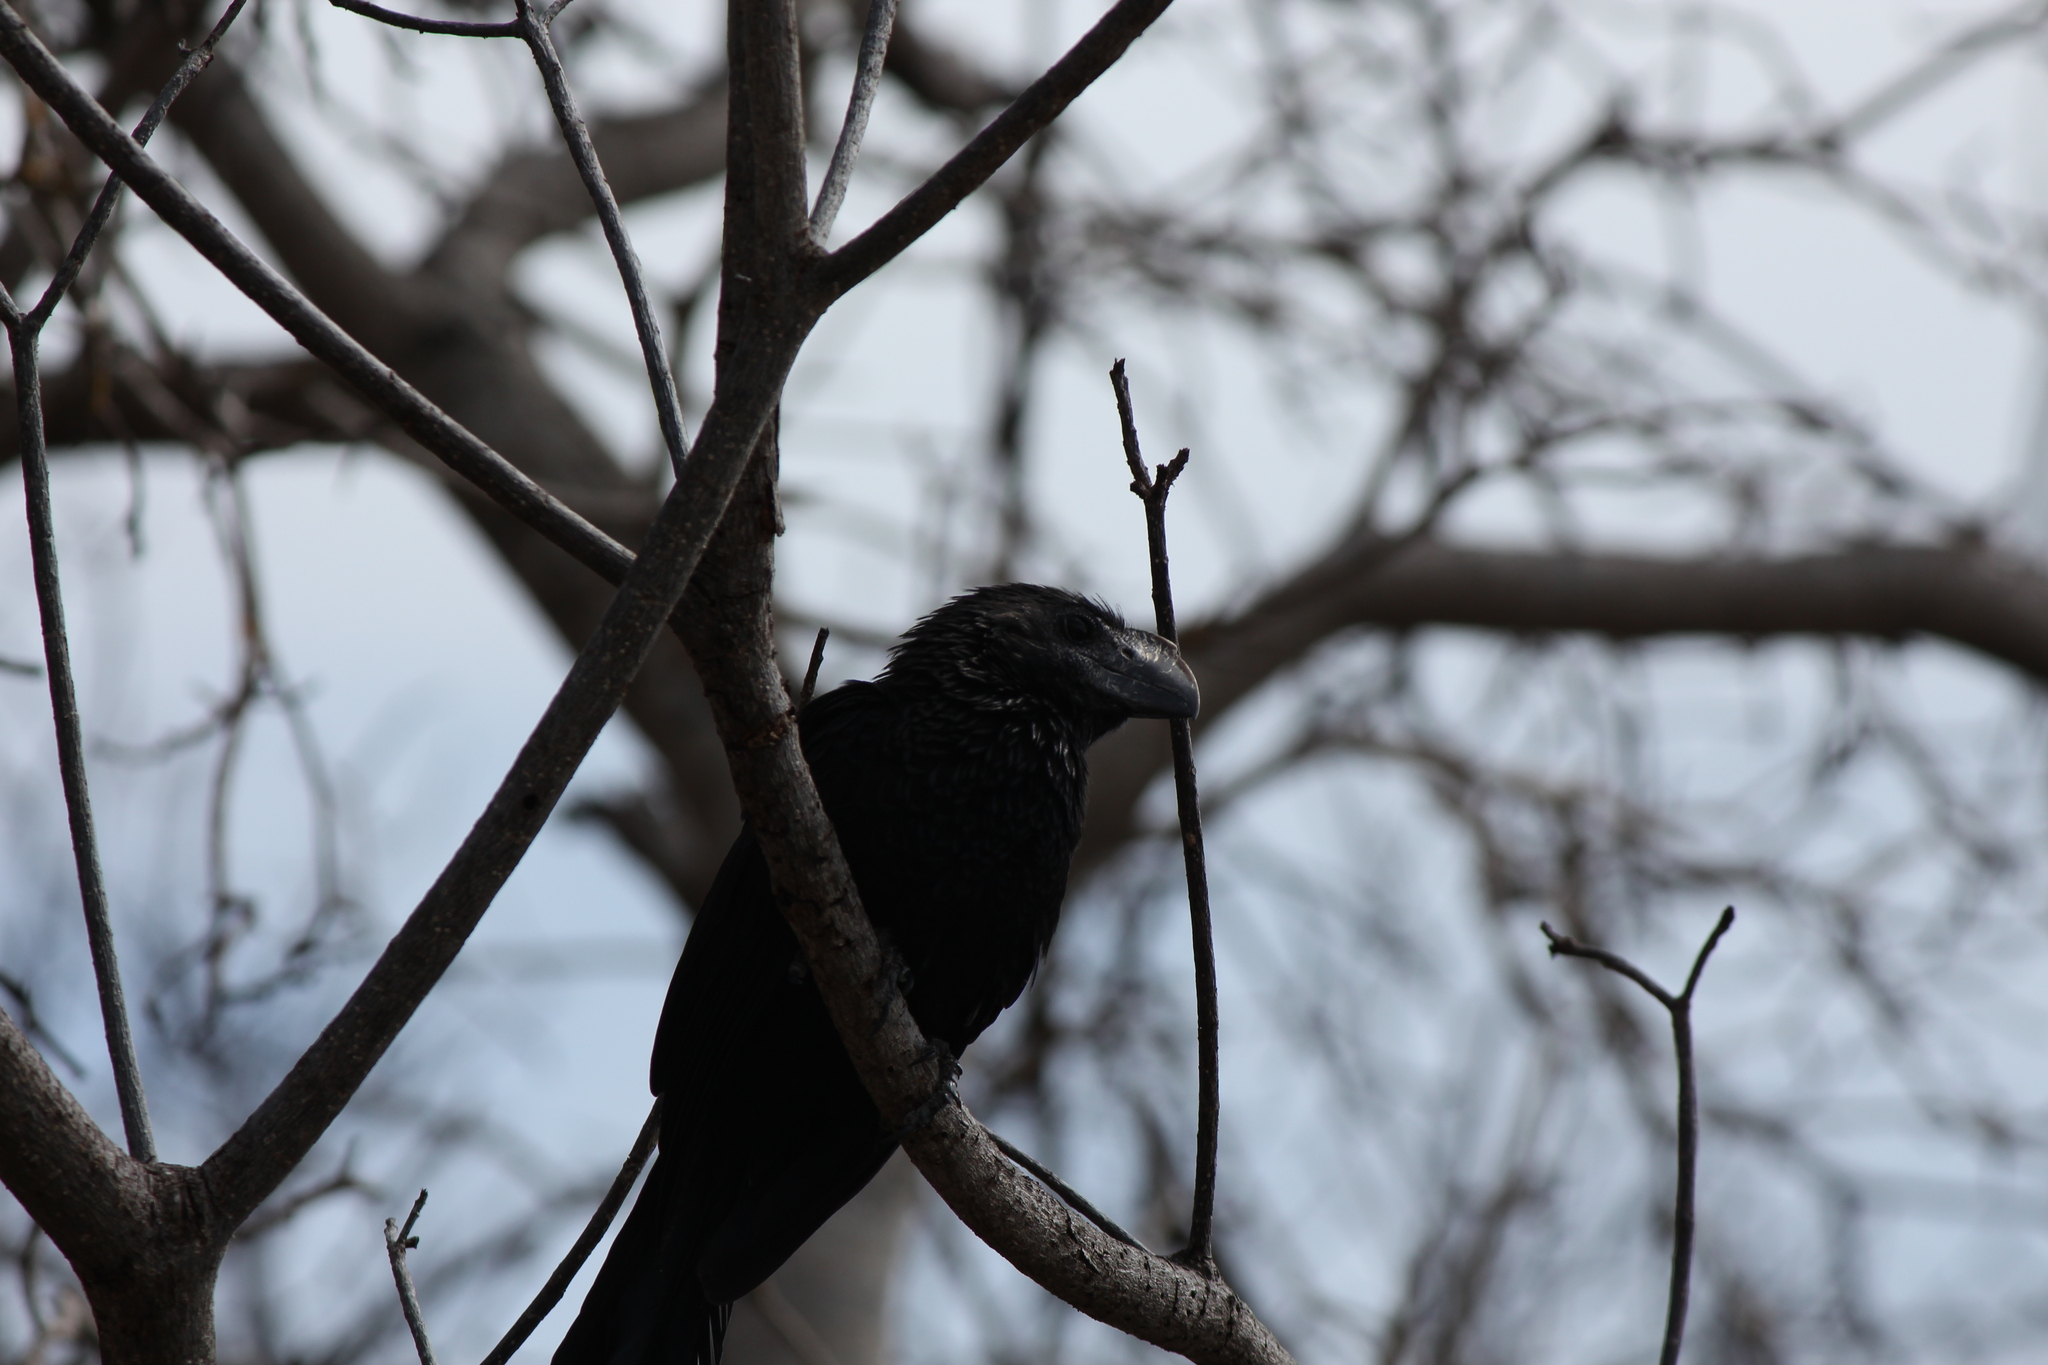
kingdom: Animalia
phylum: Chordata
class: Aves
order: Cuculiformes
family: Cuculidae
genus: Crotophaga
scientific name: Crotophaga ani
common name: Smooth-billed ani
